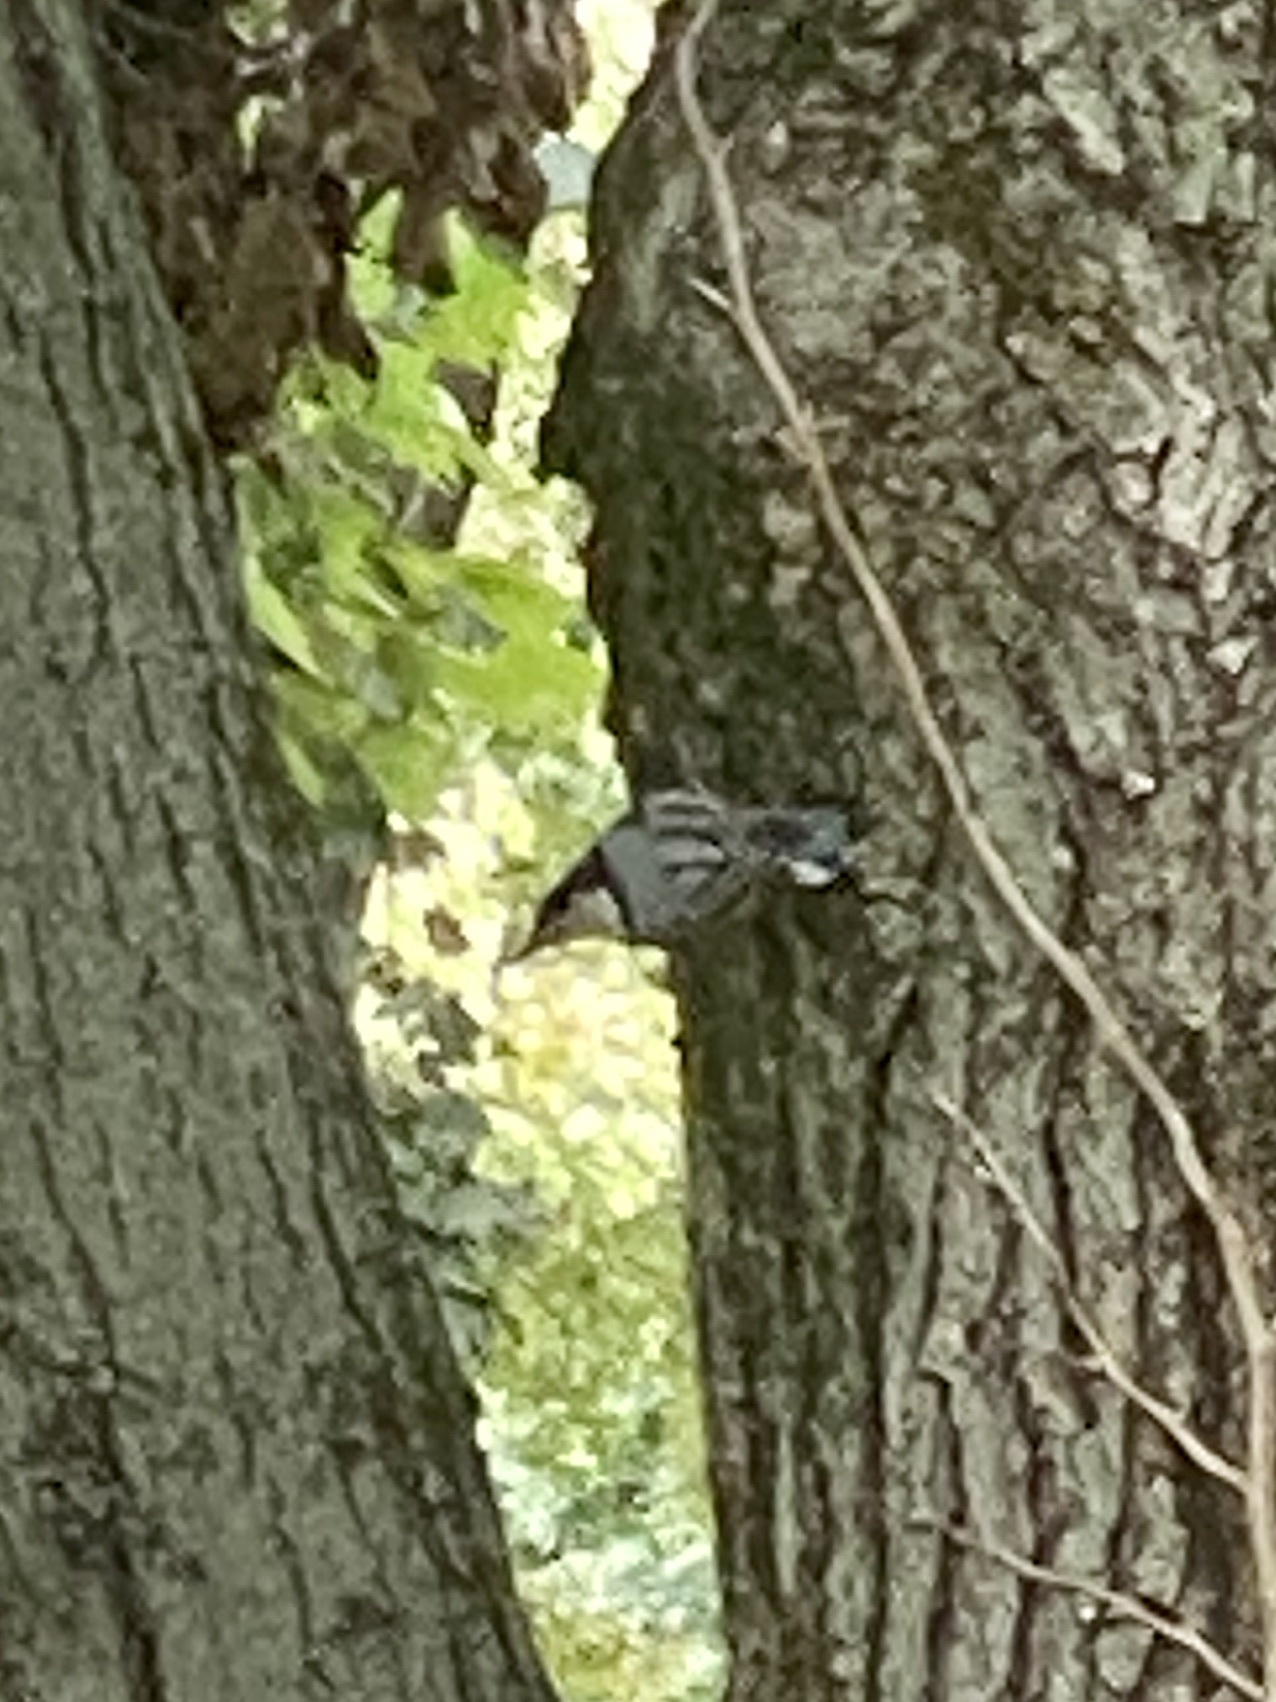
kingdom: Animalia
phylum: Chordata
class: Aves
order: Passeriformes
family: Sittidae
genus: Sitta
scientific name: Sitta carolinensis
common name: White-breasted nuthatch
